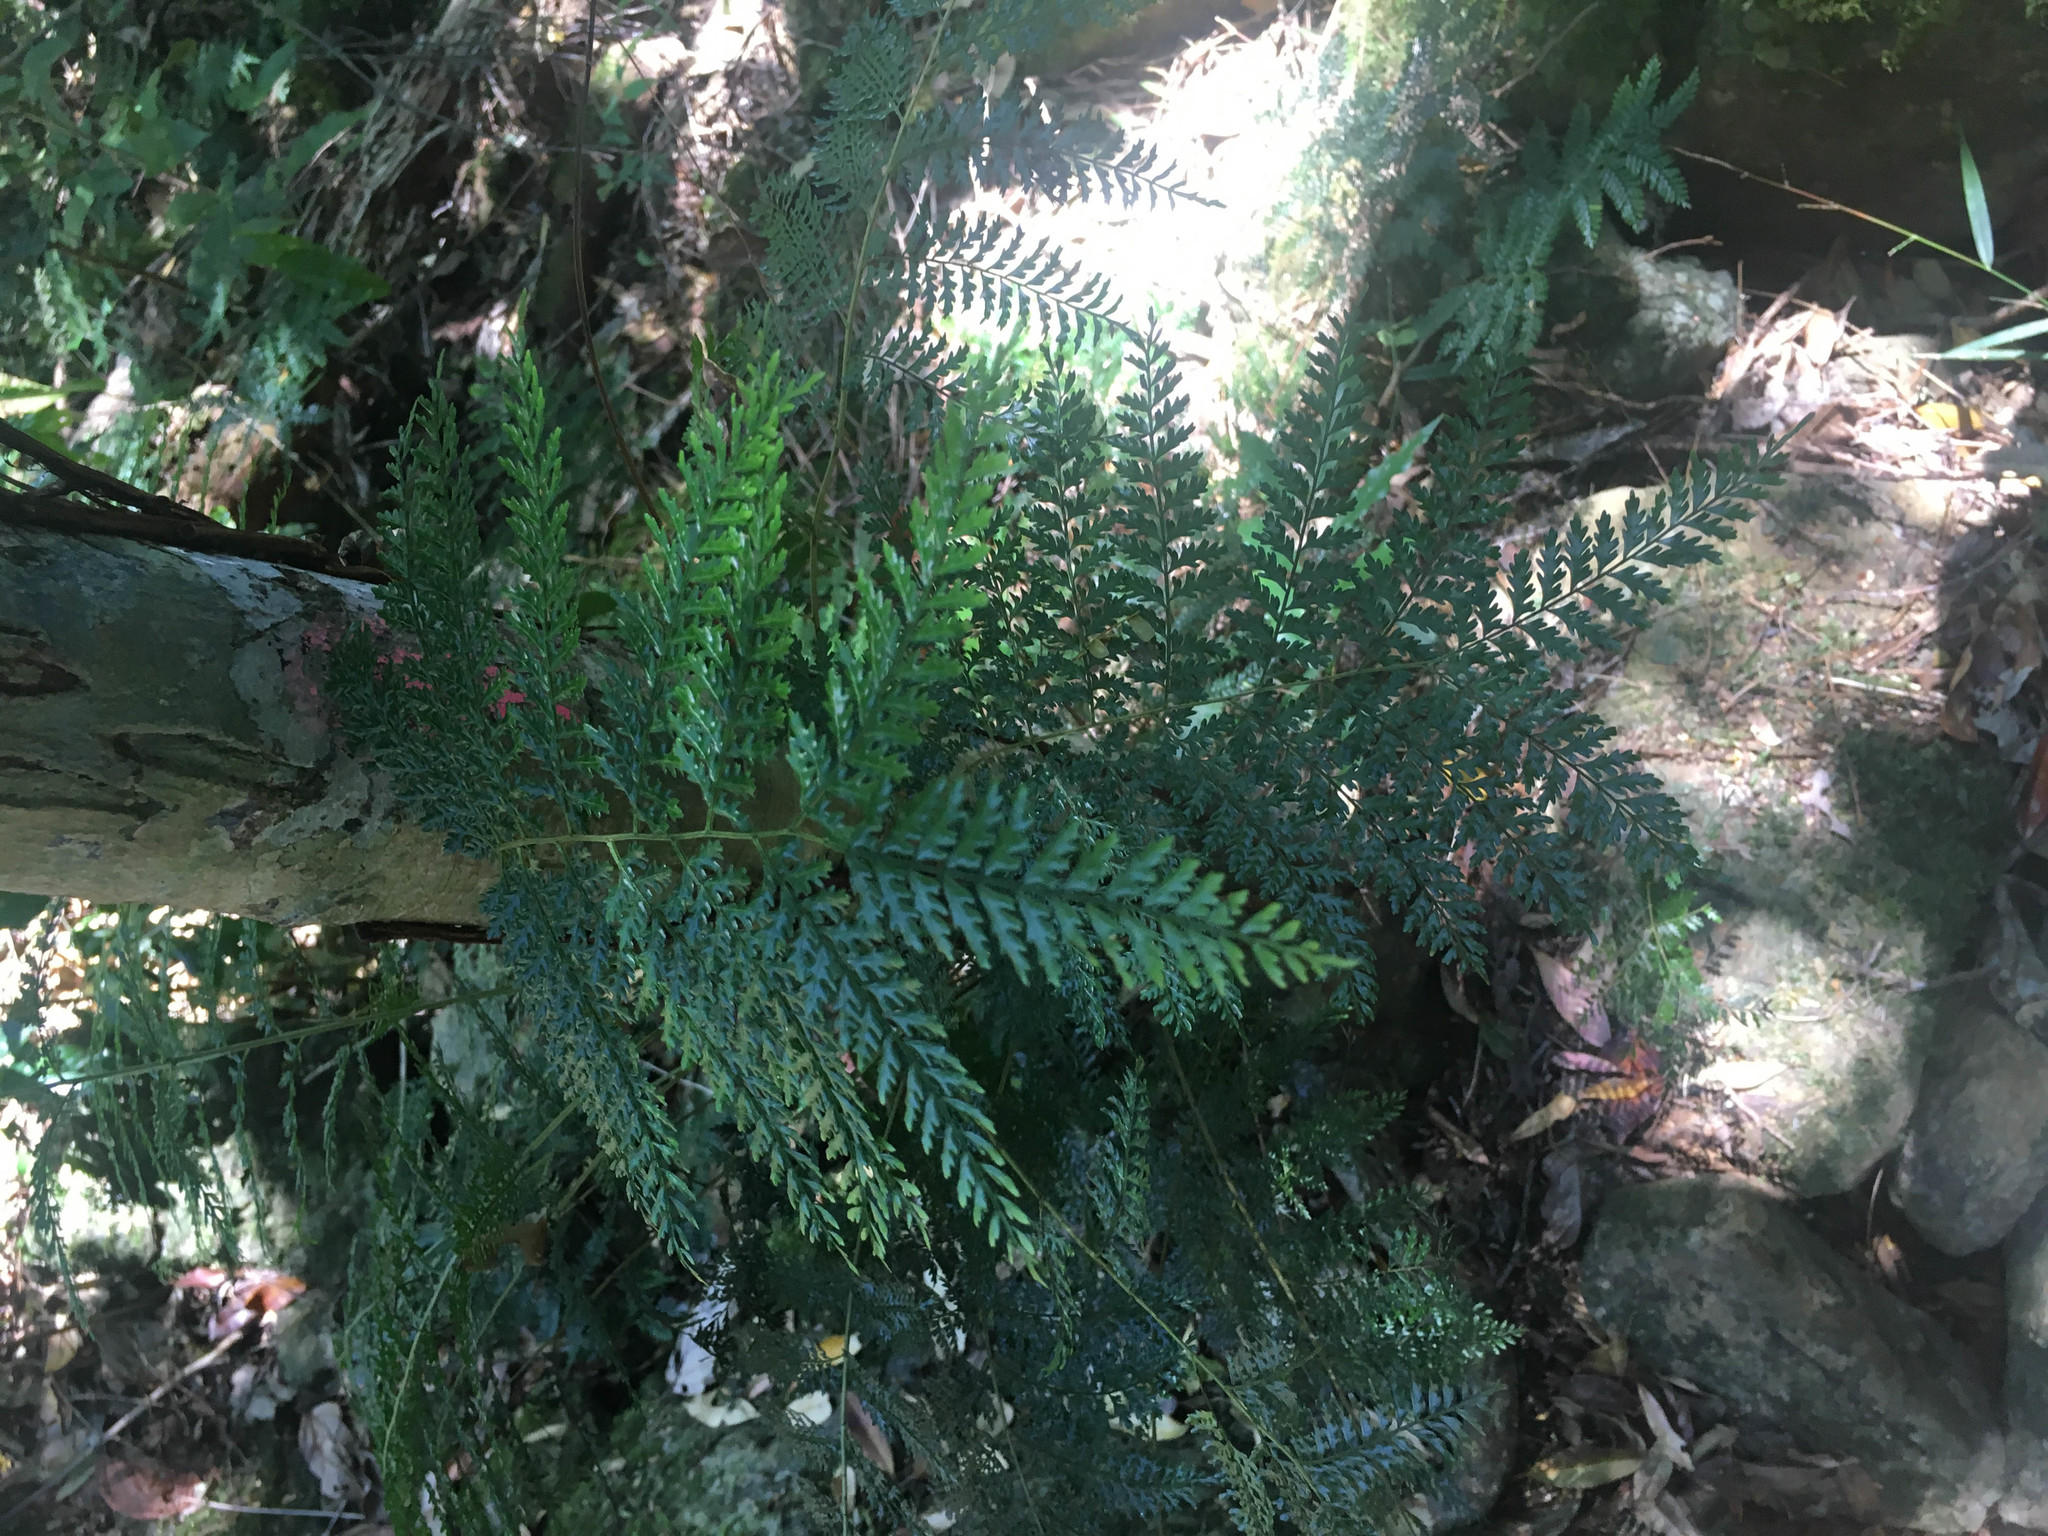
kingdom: Plantae
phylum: Tracheophyta
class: Polypodiopsida
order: Polypodiales
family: Dryopteridaceae
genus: Arthrobotrya
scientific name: Arthrobotrya wilkesiana
